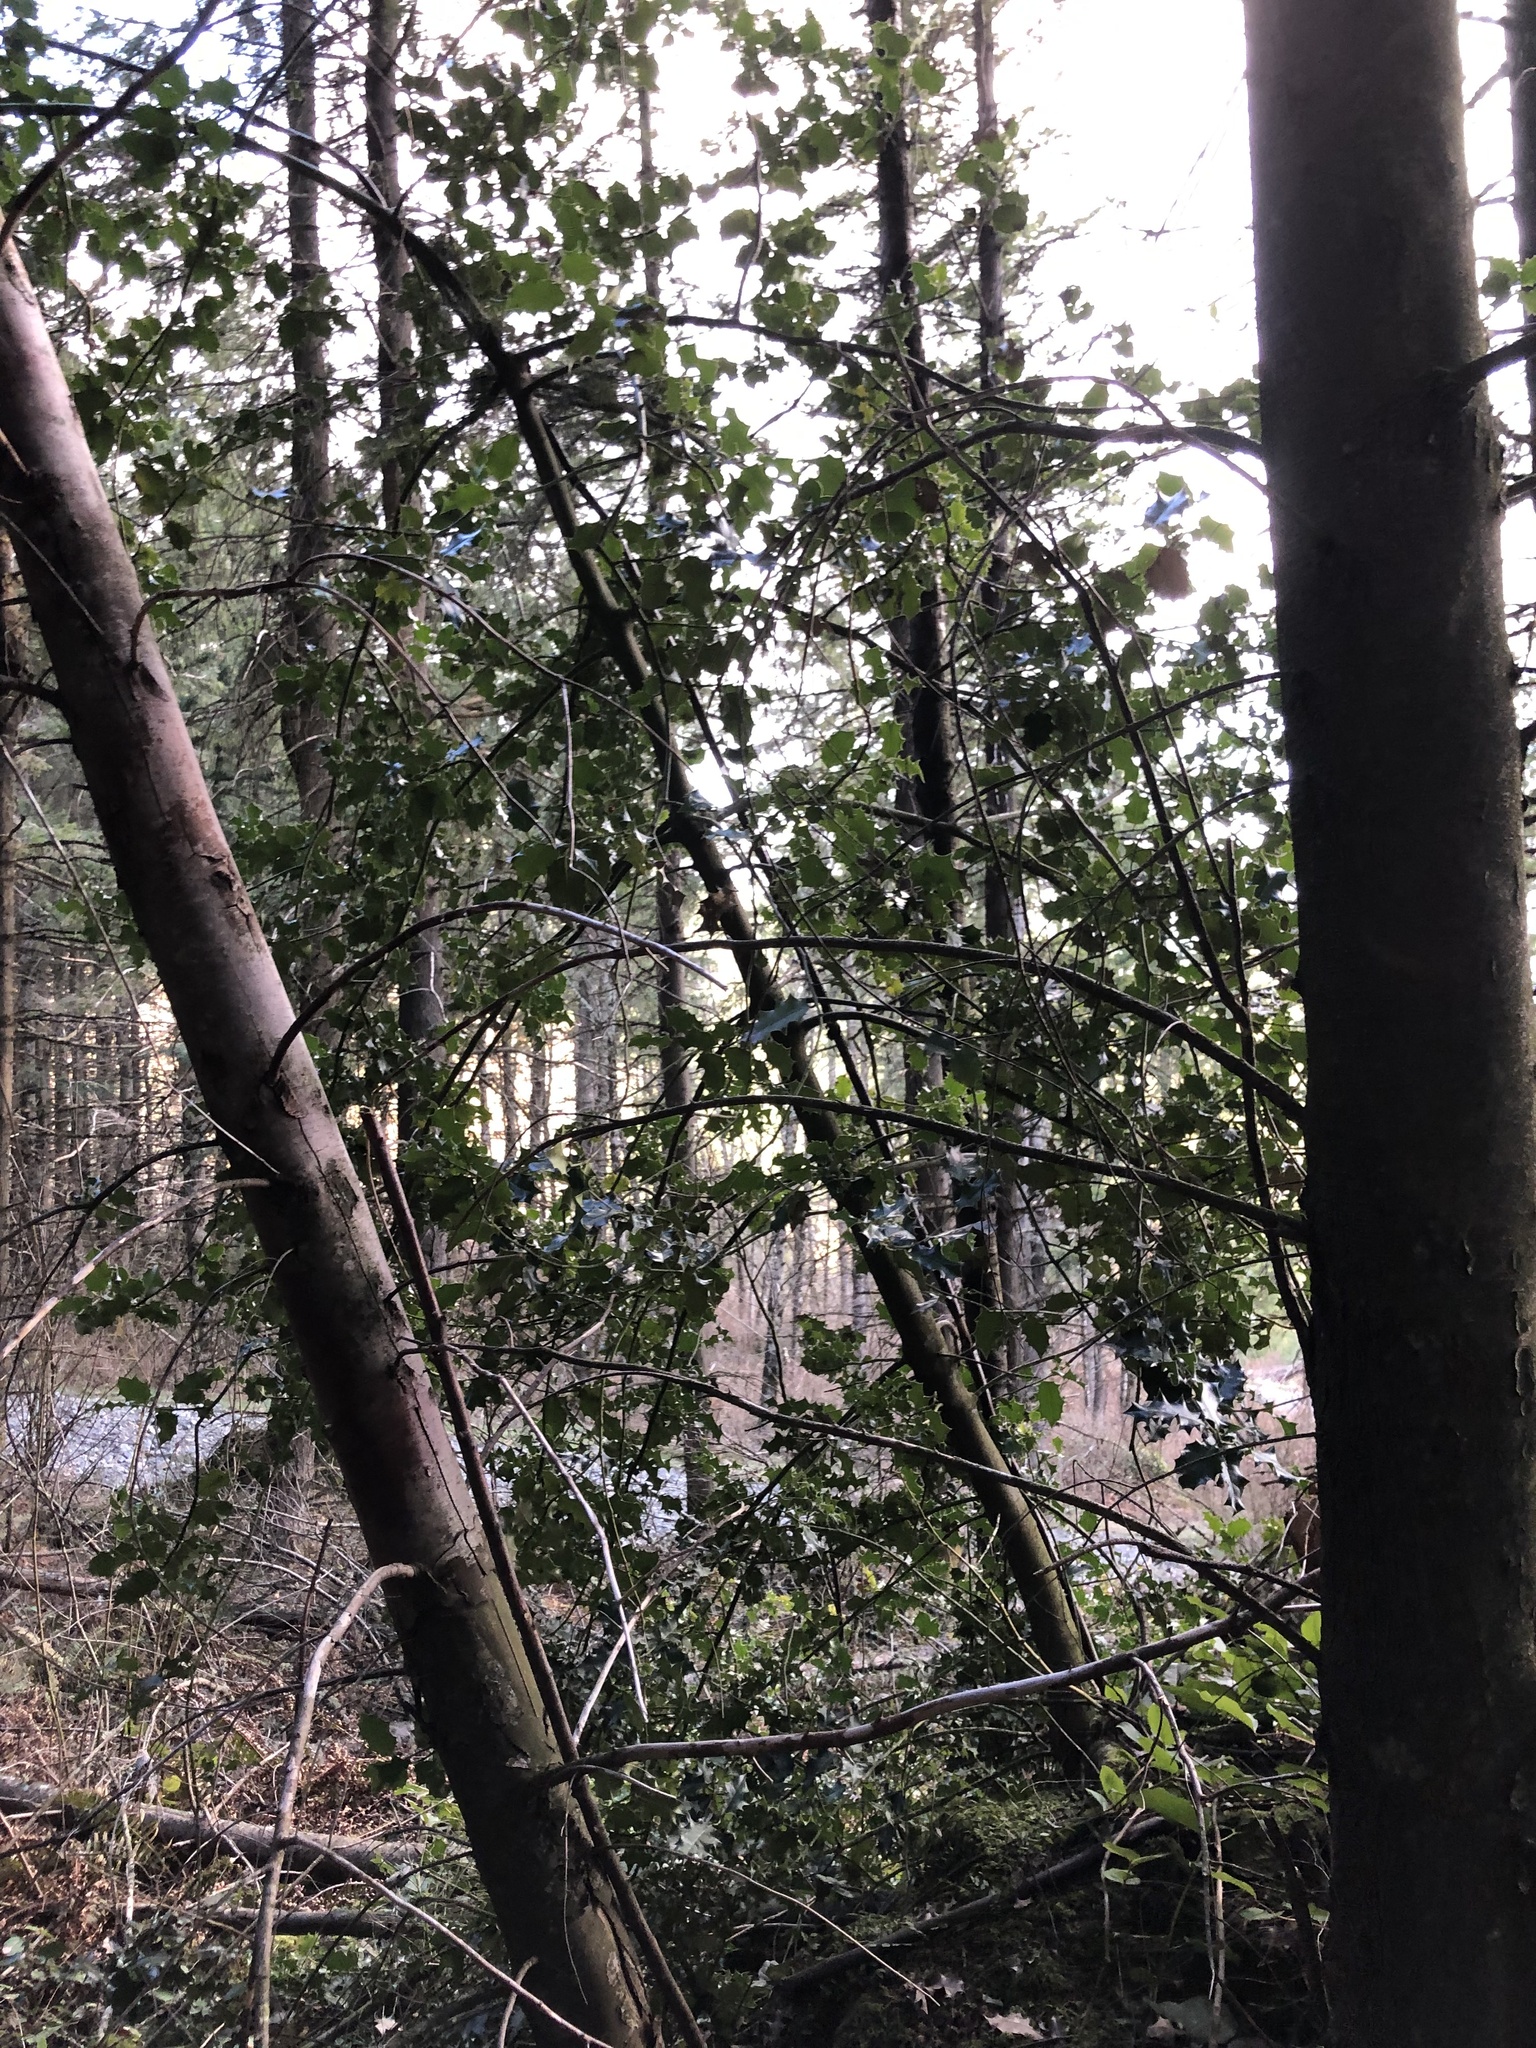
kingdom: Plantae
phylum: Tracheophyta
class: Magnoliopsida
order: Aquifoliales
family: Aquifoliaceae
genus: Ilex
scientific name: Ilex aquifolium
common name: English holly
